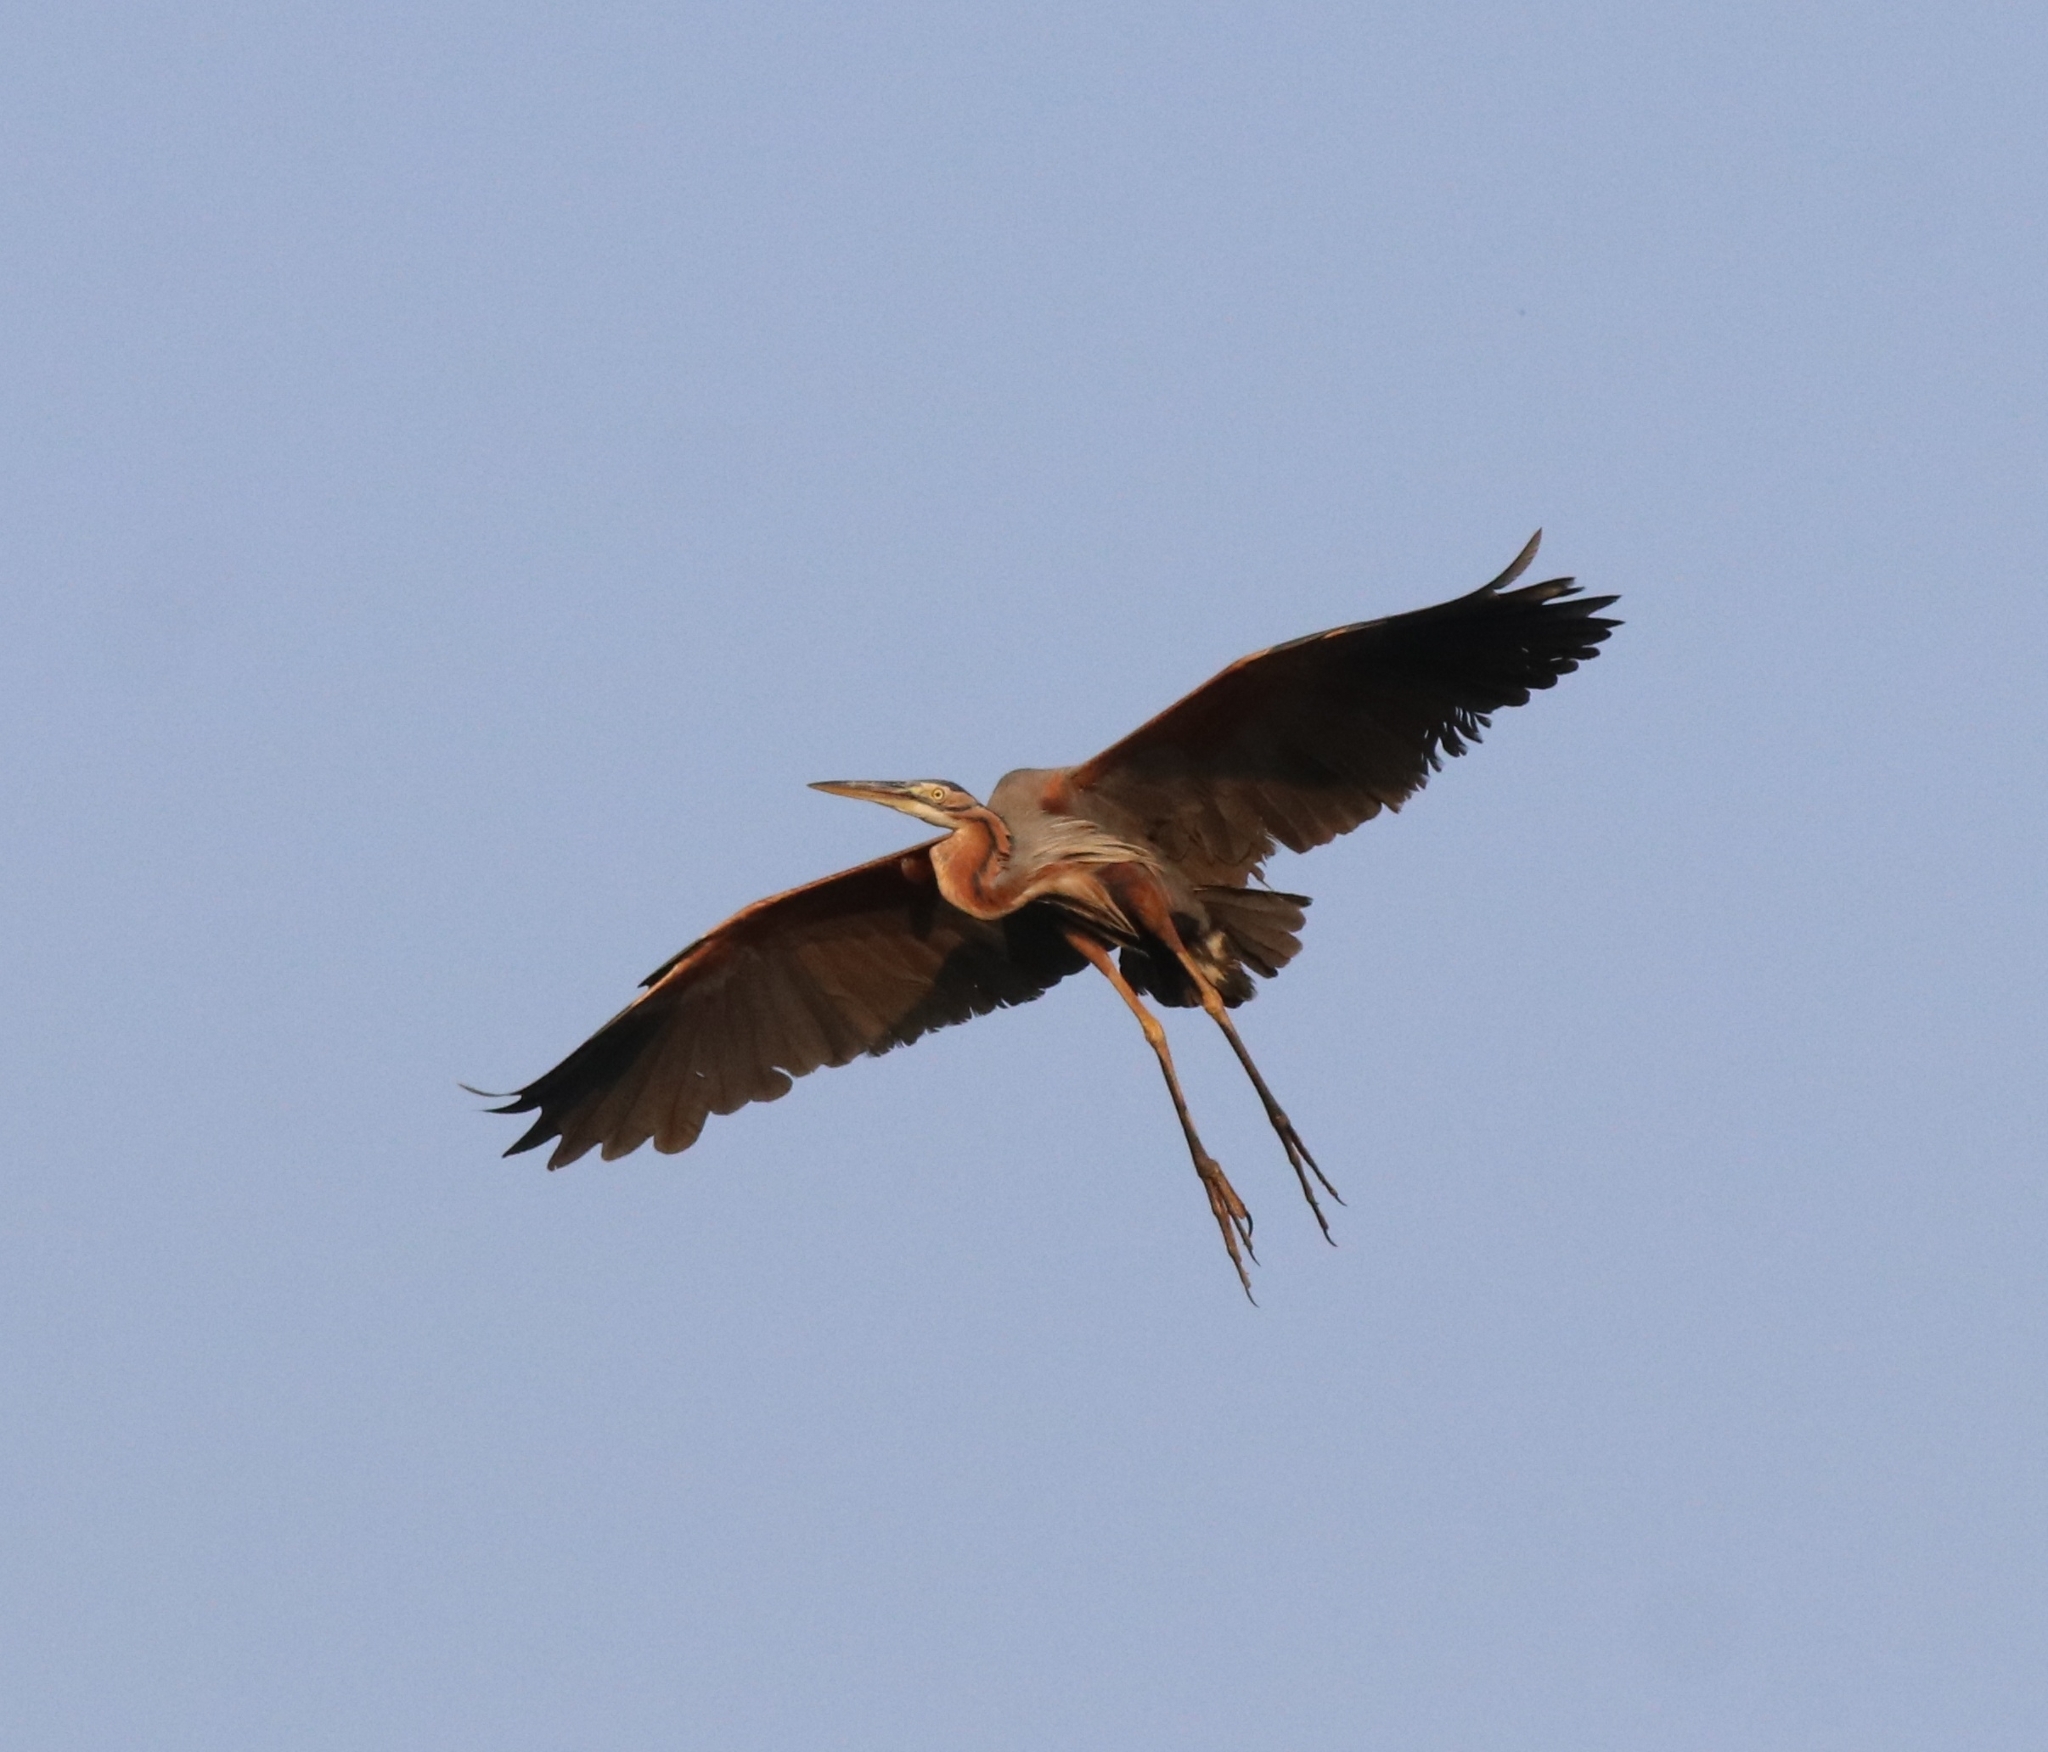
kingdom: Animalia
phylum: Chordata
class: Aves
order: Pelecaniformes
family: Ardeidae
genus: Ardea
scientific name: Ardea purpurea
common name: Purple heron
